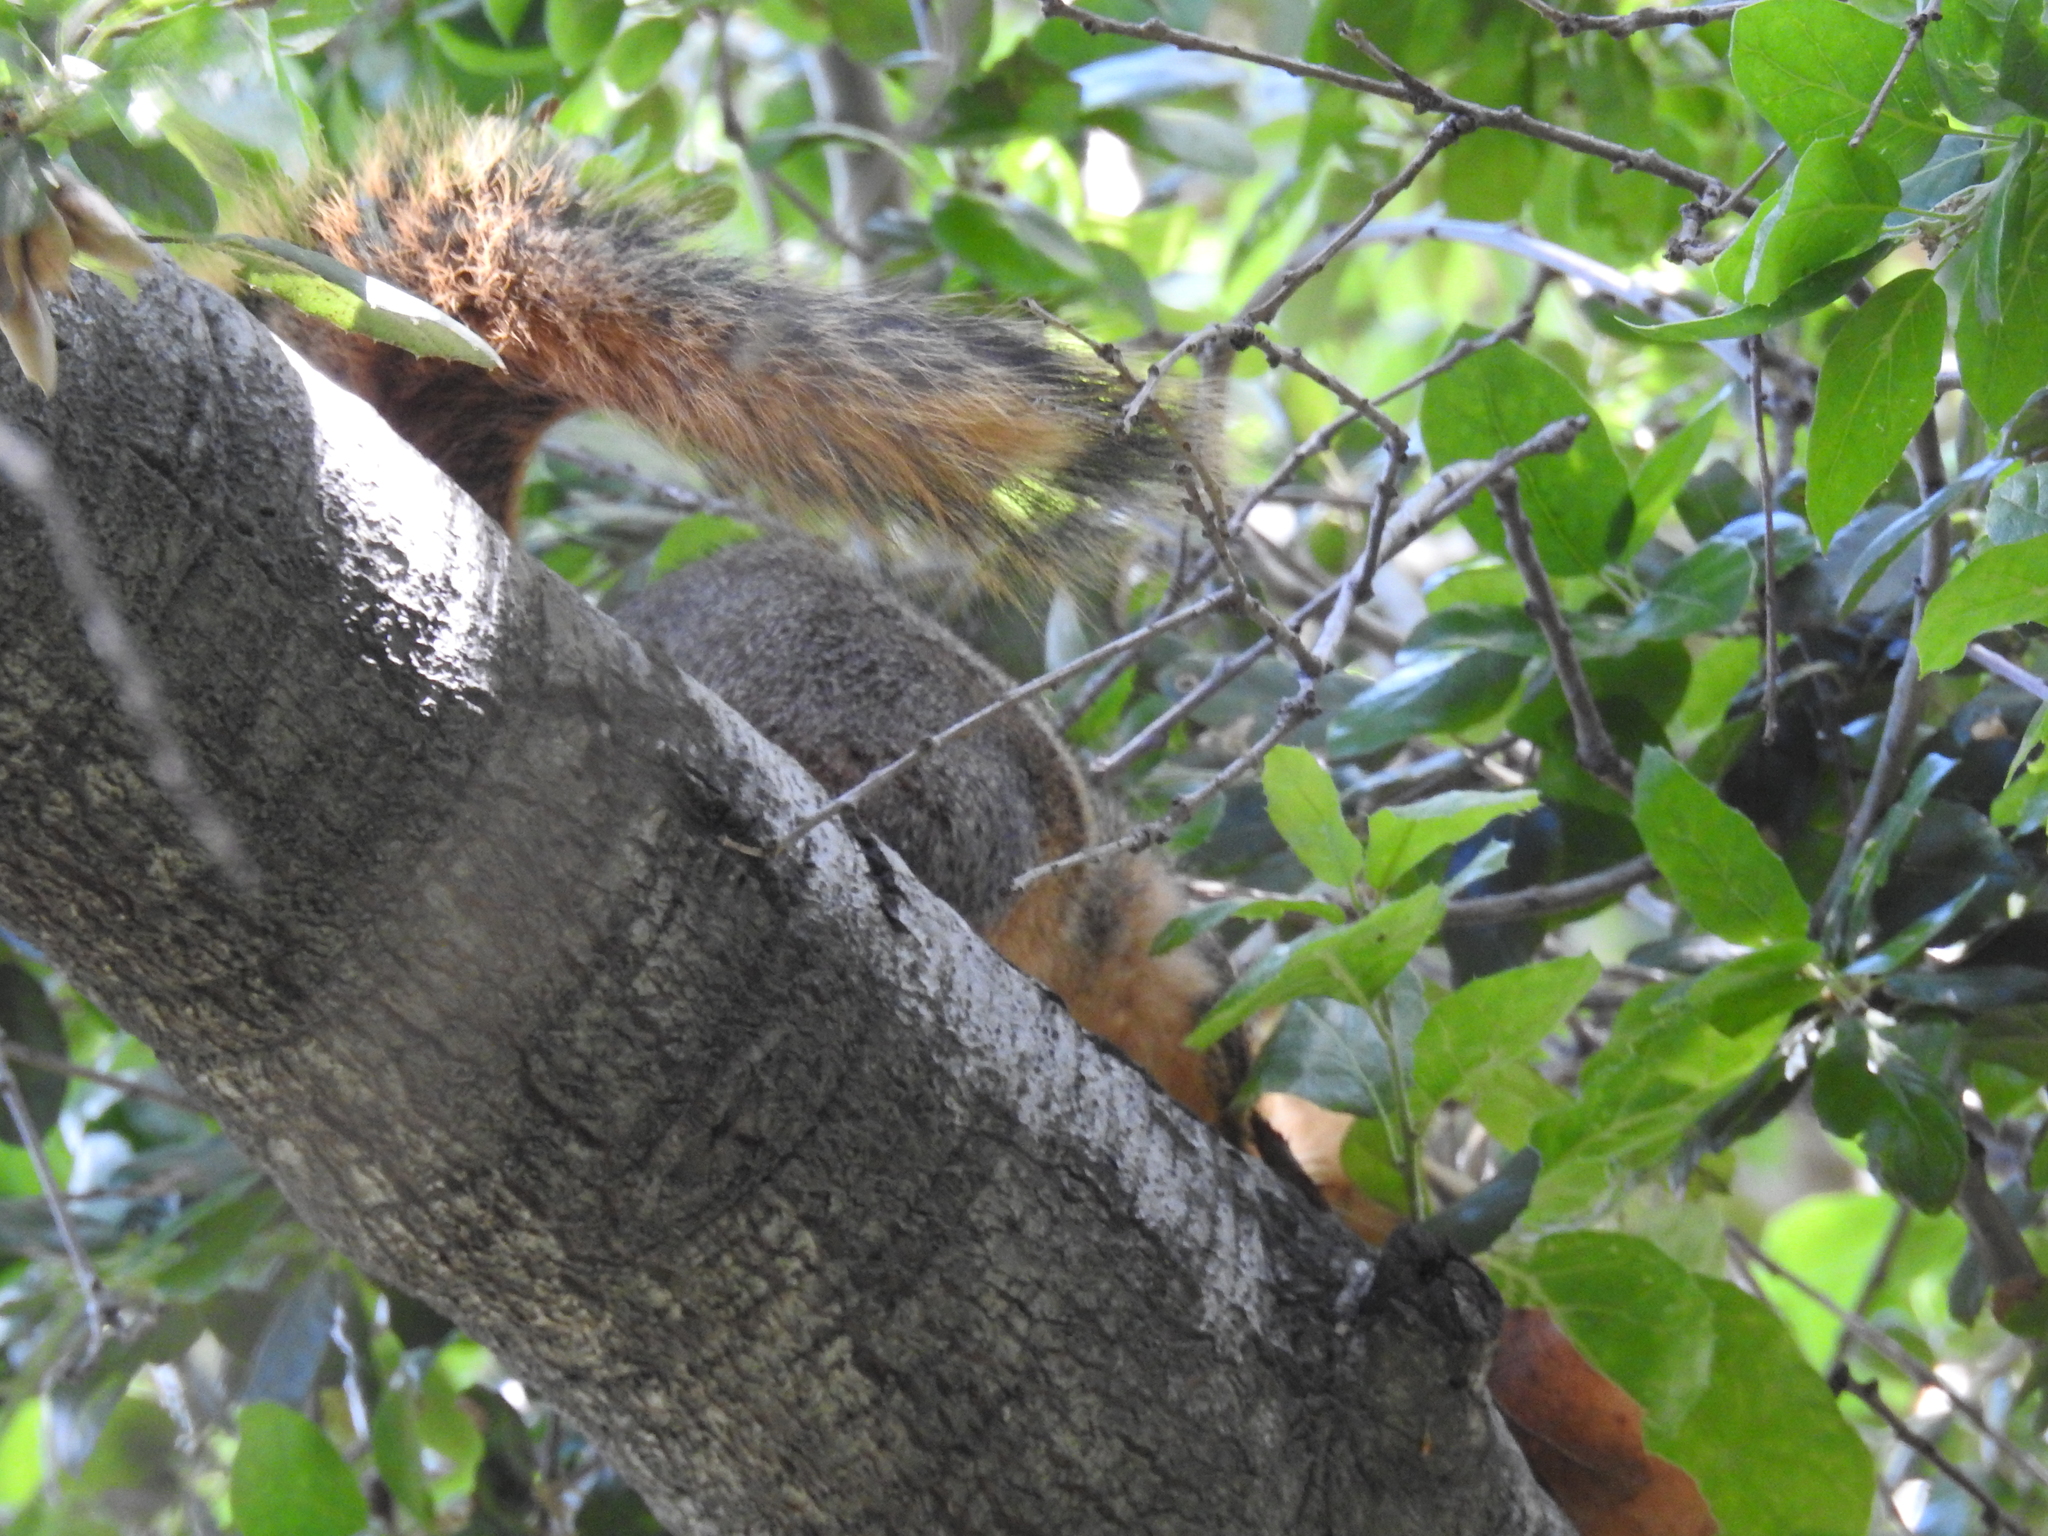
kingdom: Animalia
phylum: Chordata
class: Mammalia
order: Rodentia
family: Sciuridae
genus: Sciurus
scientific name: Sciurus niger
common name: Fox squirrel
